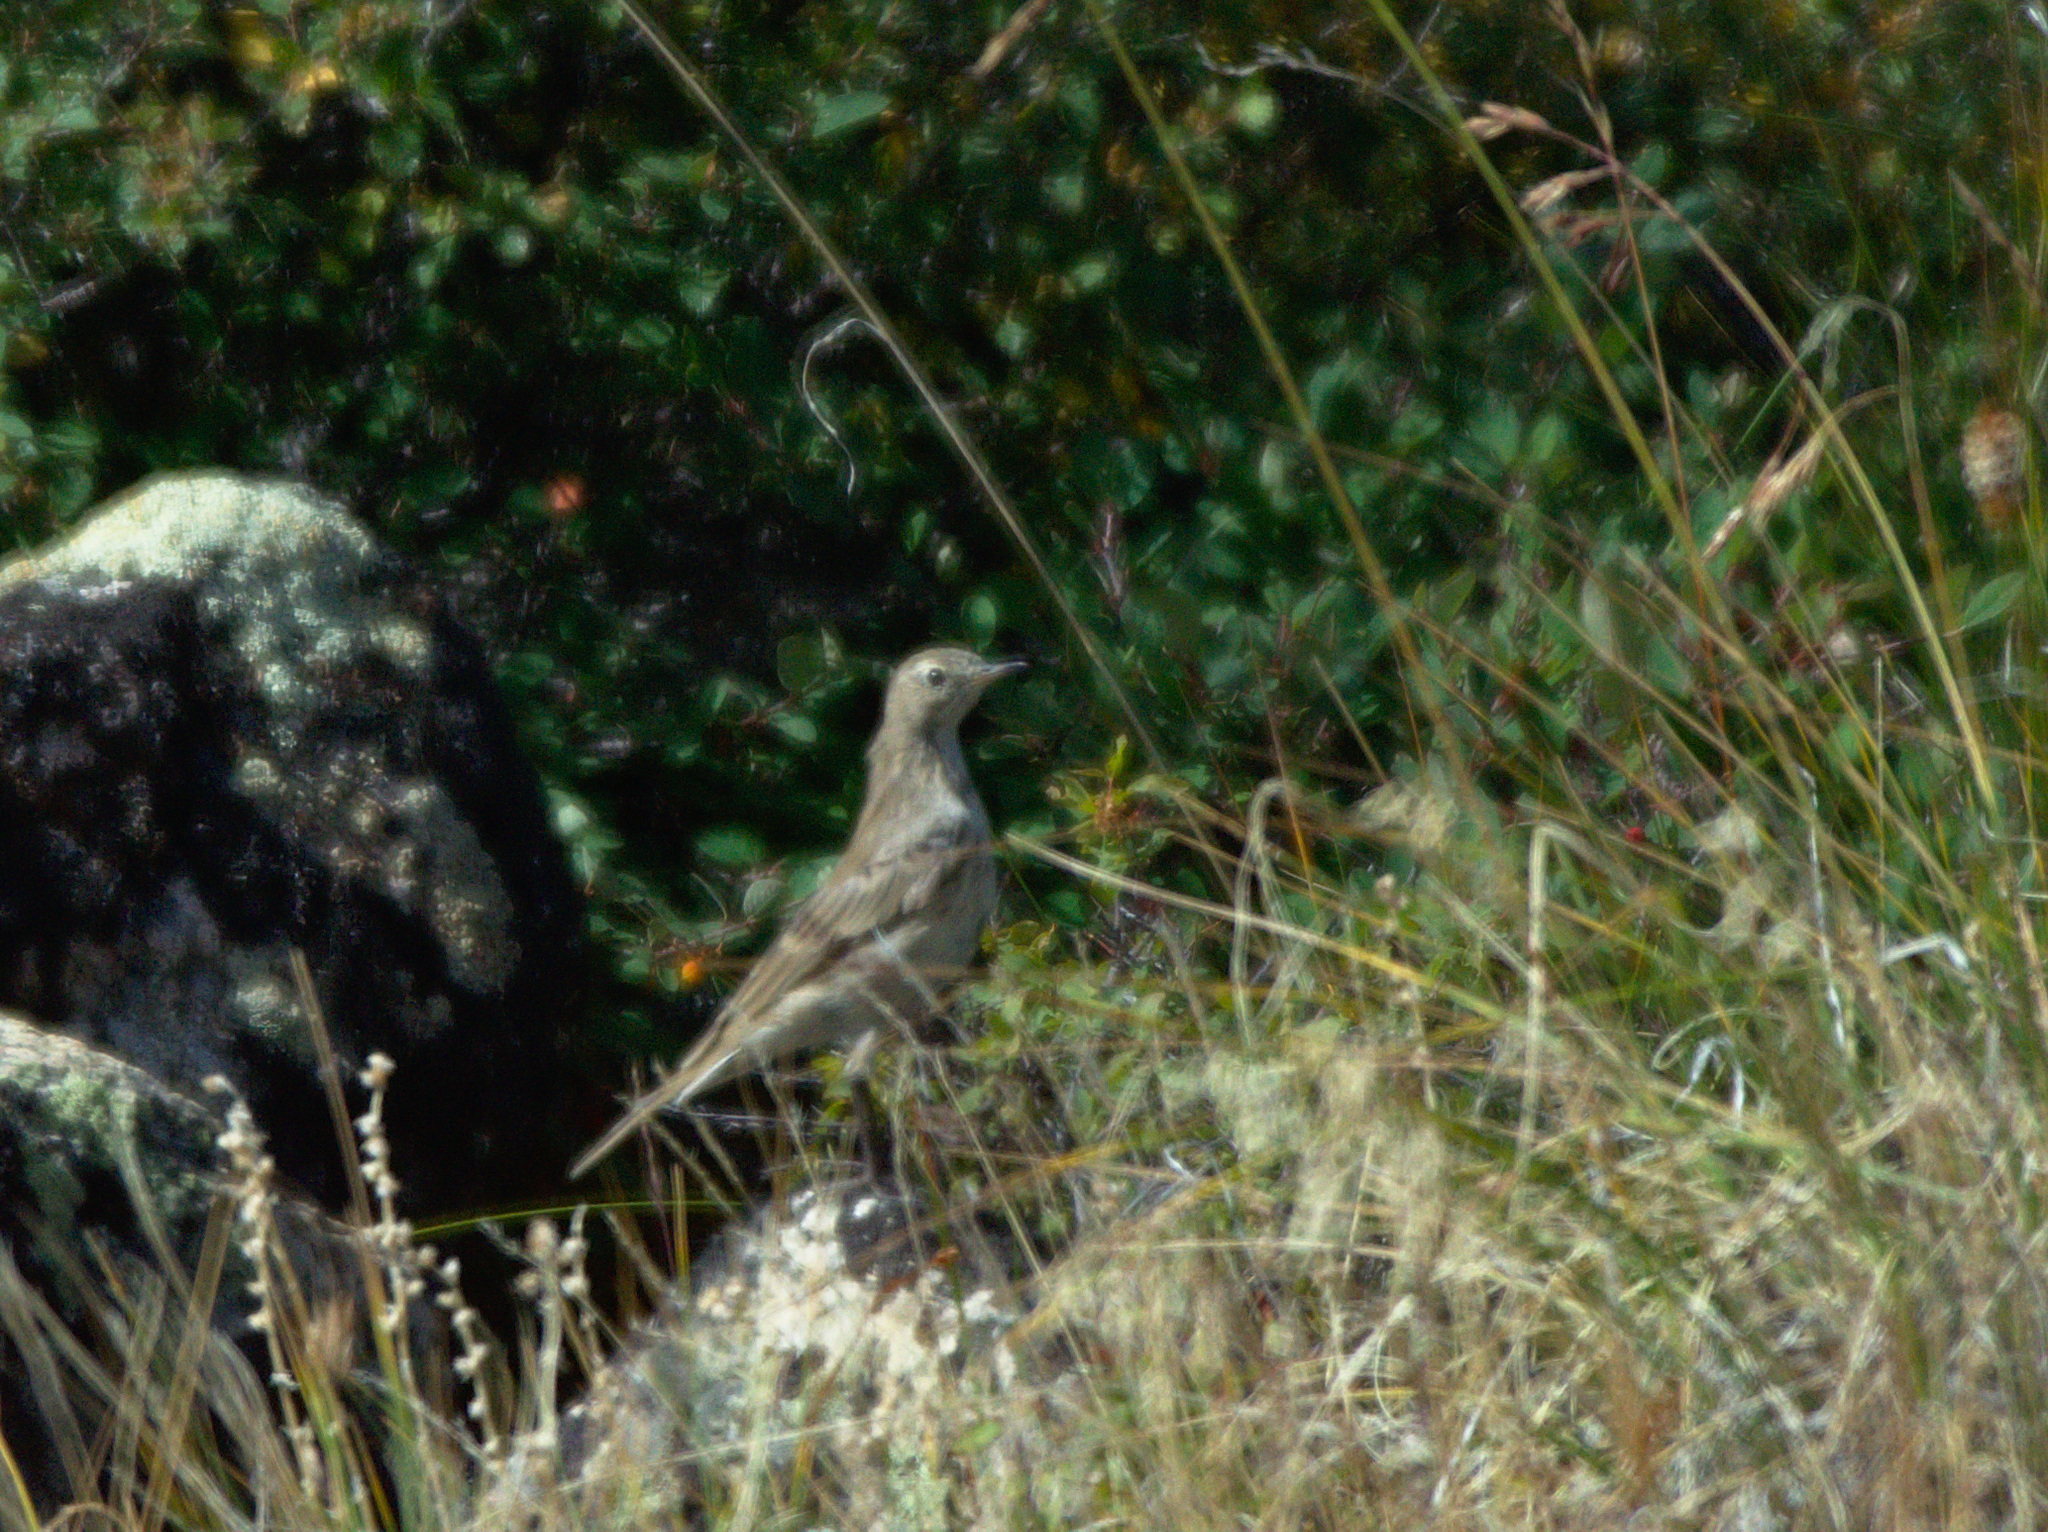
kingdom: Animalia
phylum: Chordata
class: Aves
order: Passeriformes
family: Motacillidae
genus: Anthus
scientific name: Anthus spinoletta
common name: Water pipit
